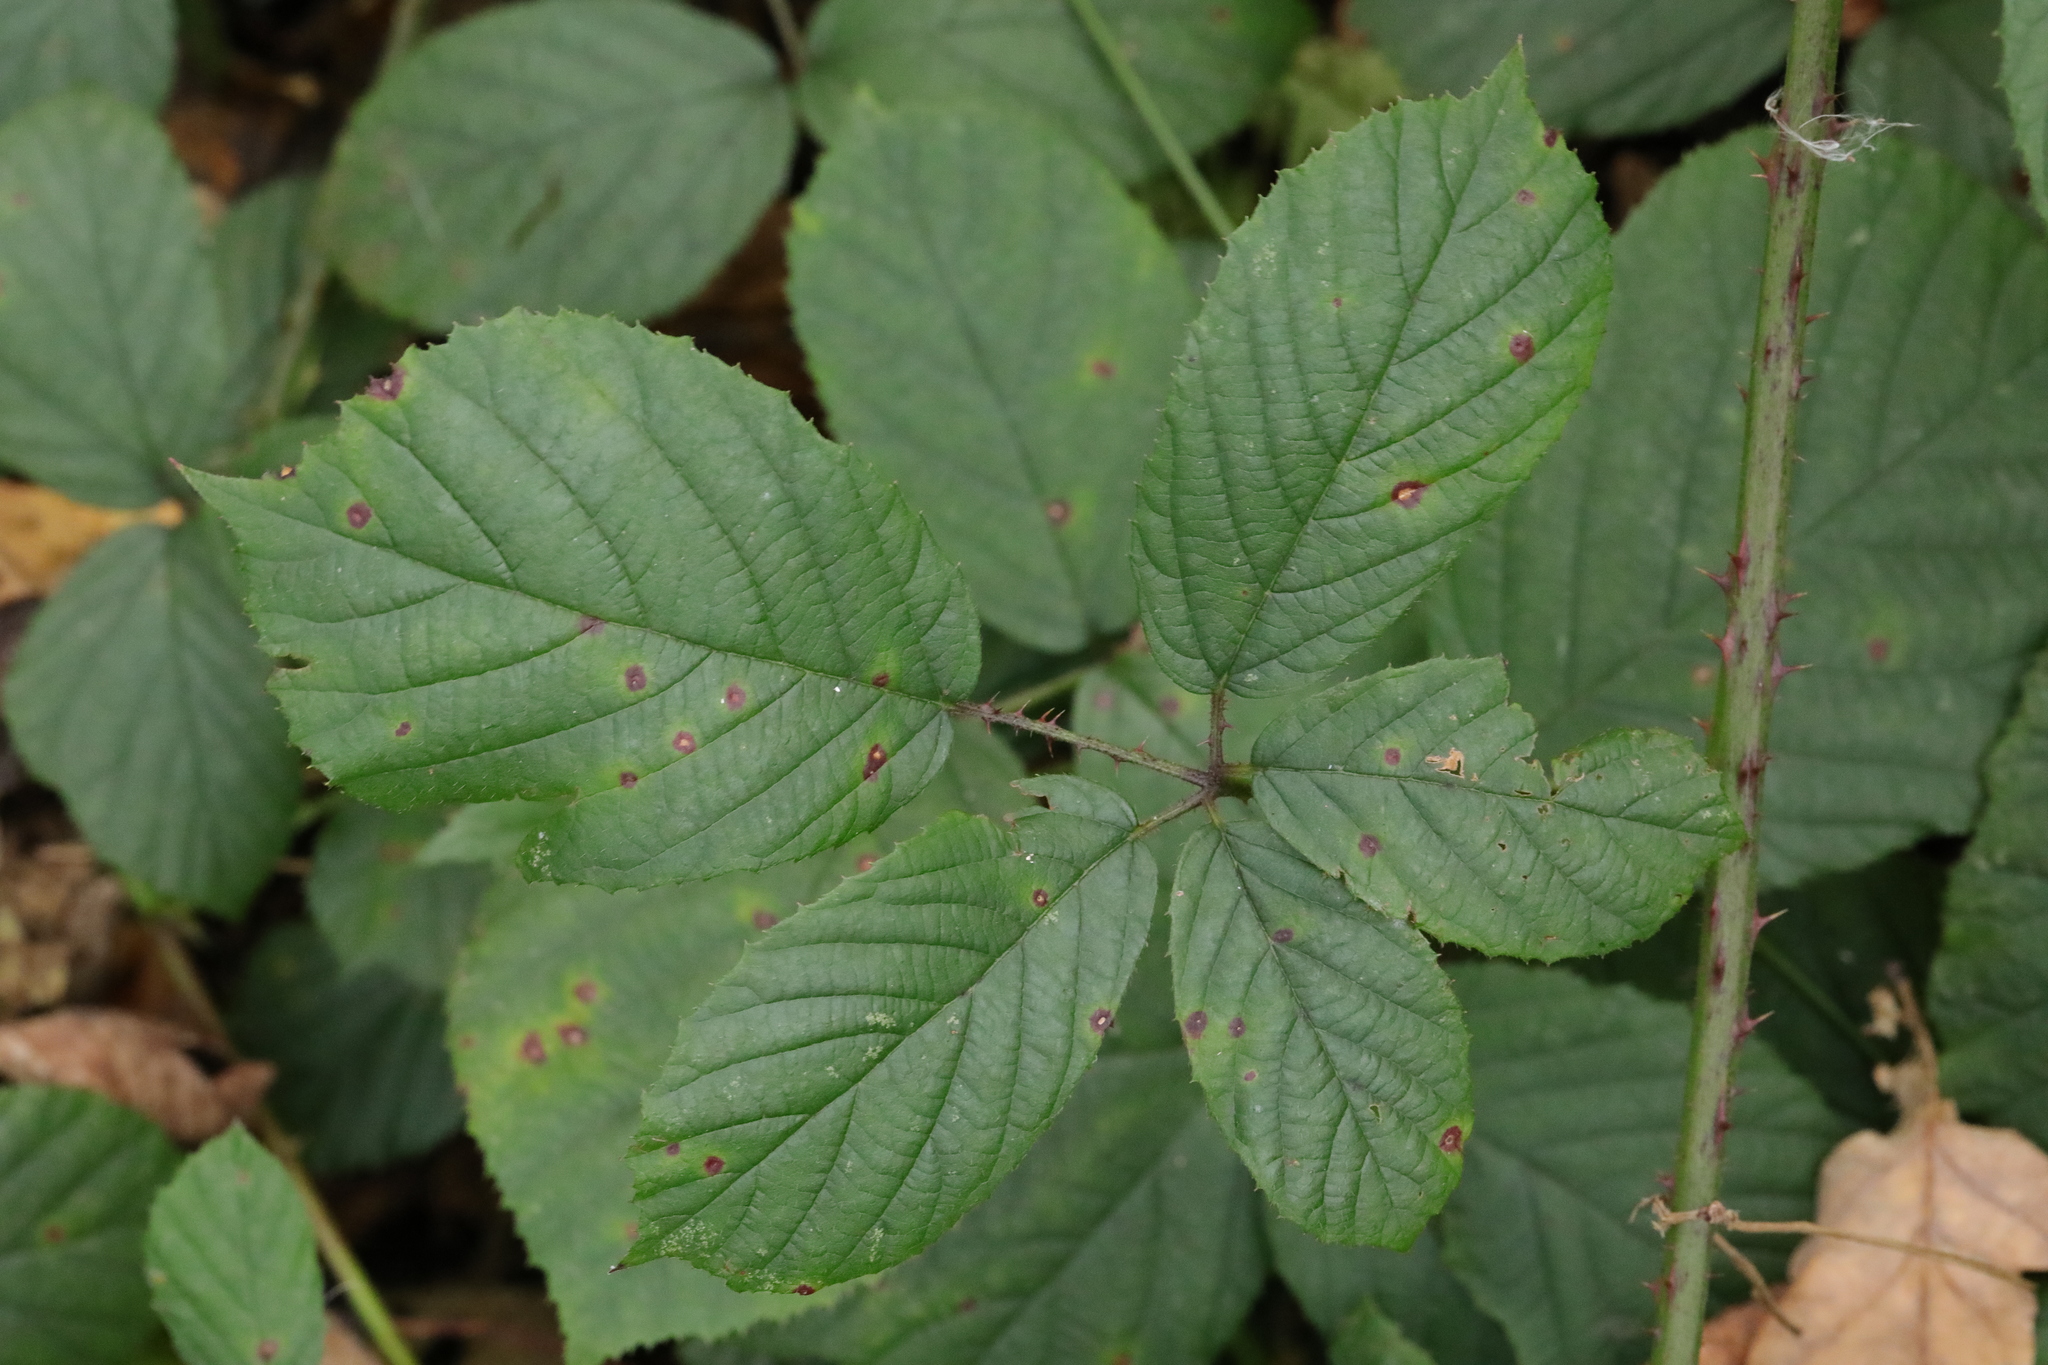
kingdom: Plantae
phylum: Tracheophyta
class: Magnoliopsida
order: Rosales
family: Rosaceae
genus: Rubus
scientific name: Rubus newbouldii
